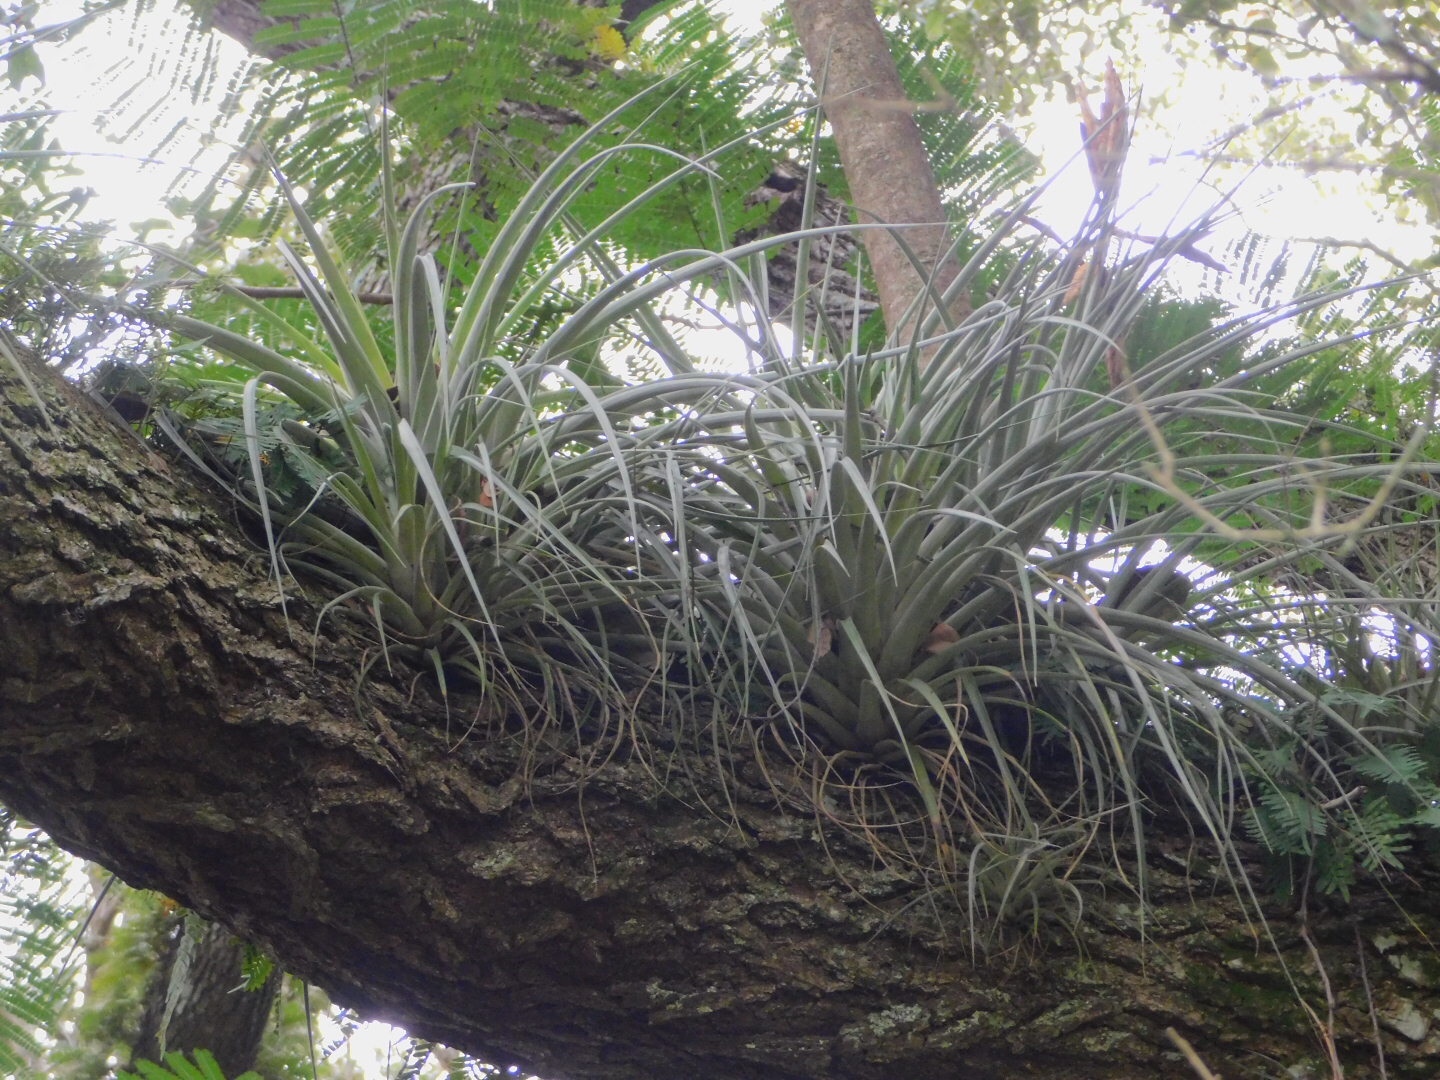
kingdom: Plantae
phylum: Tracheophyta
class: Liliopsida
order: Poales
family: Bromeliaceae
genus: Tillandsia
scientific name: Tillandsia fasciculata
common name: Giant airplant
